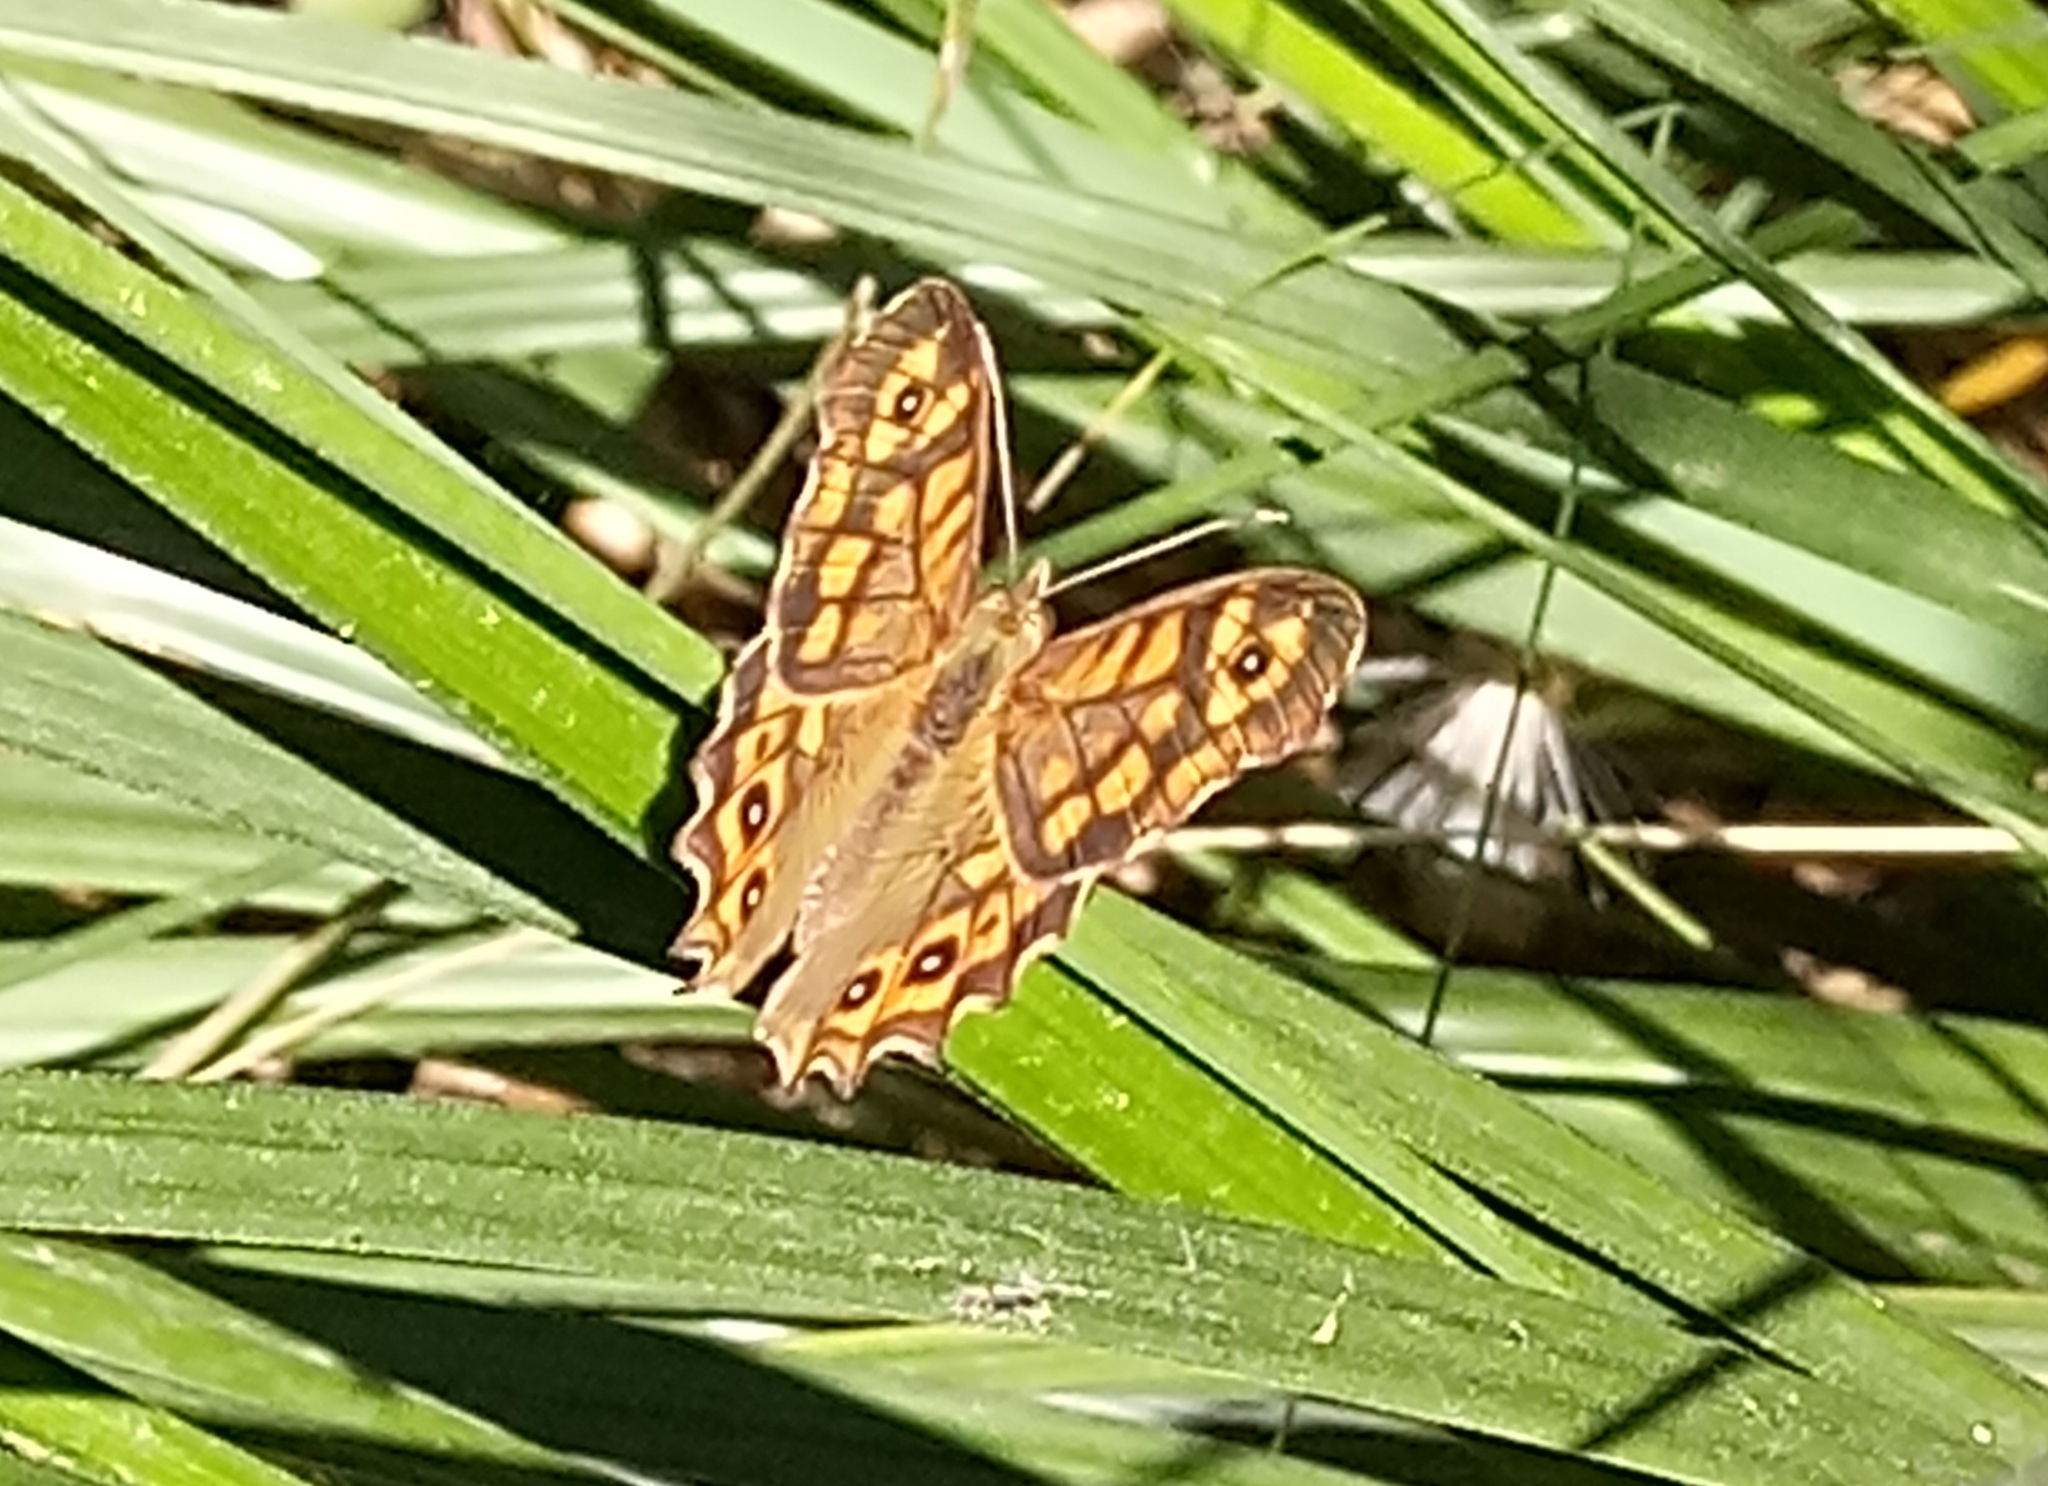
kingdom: Animalia
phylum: Arthropoda
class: Insecta
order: Lepidoptera
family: Nymphalidae
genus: Pararge
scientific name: Pararge aegeria
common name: Speckled wood
